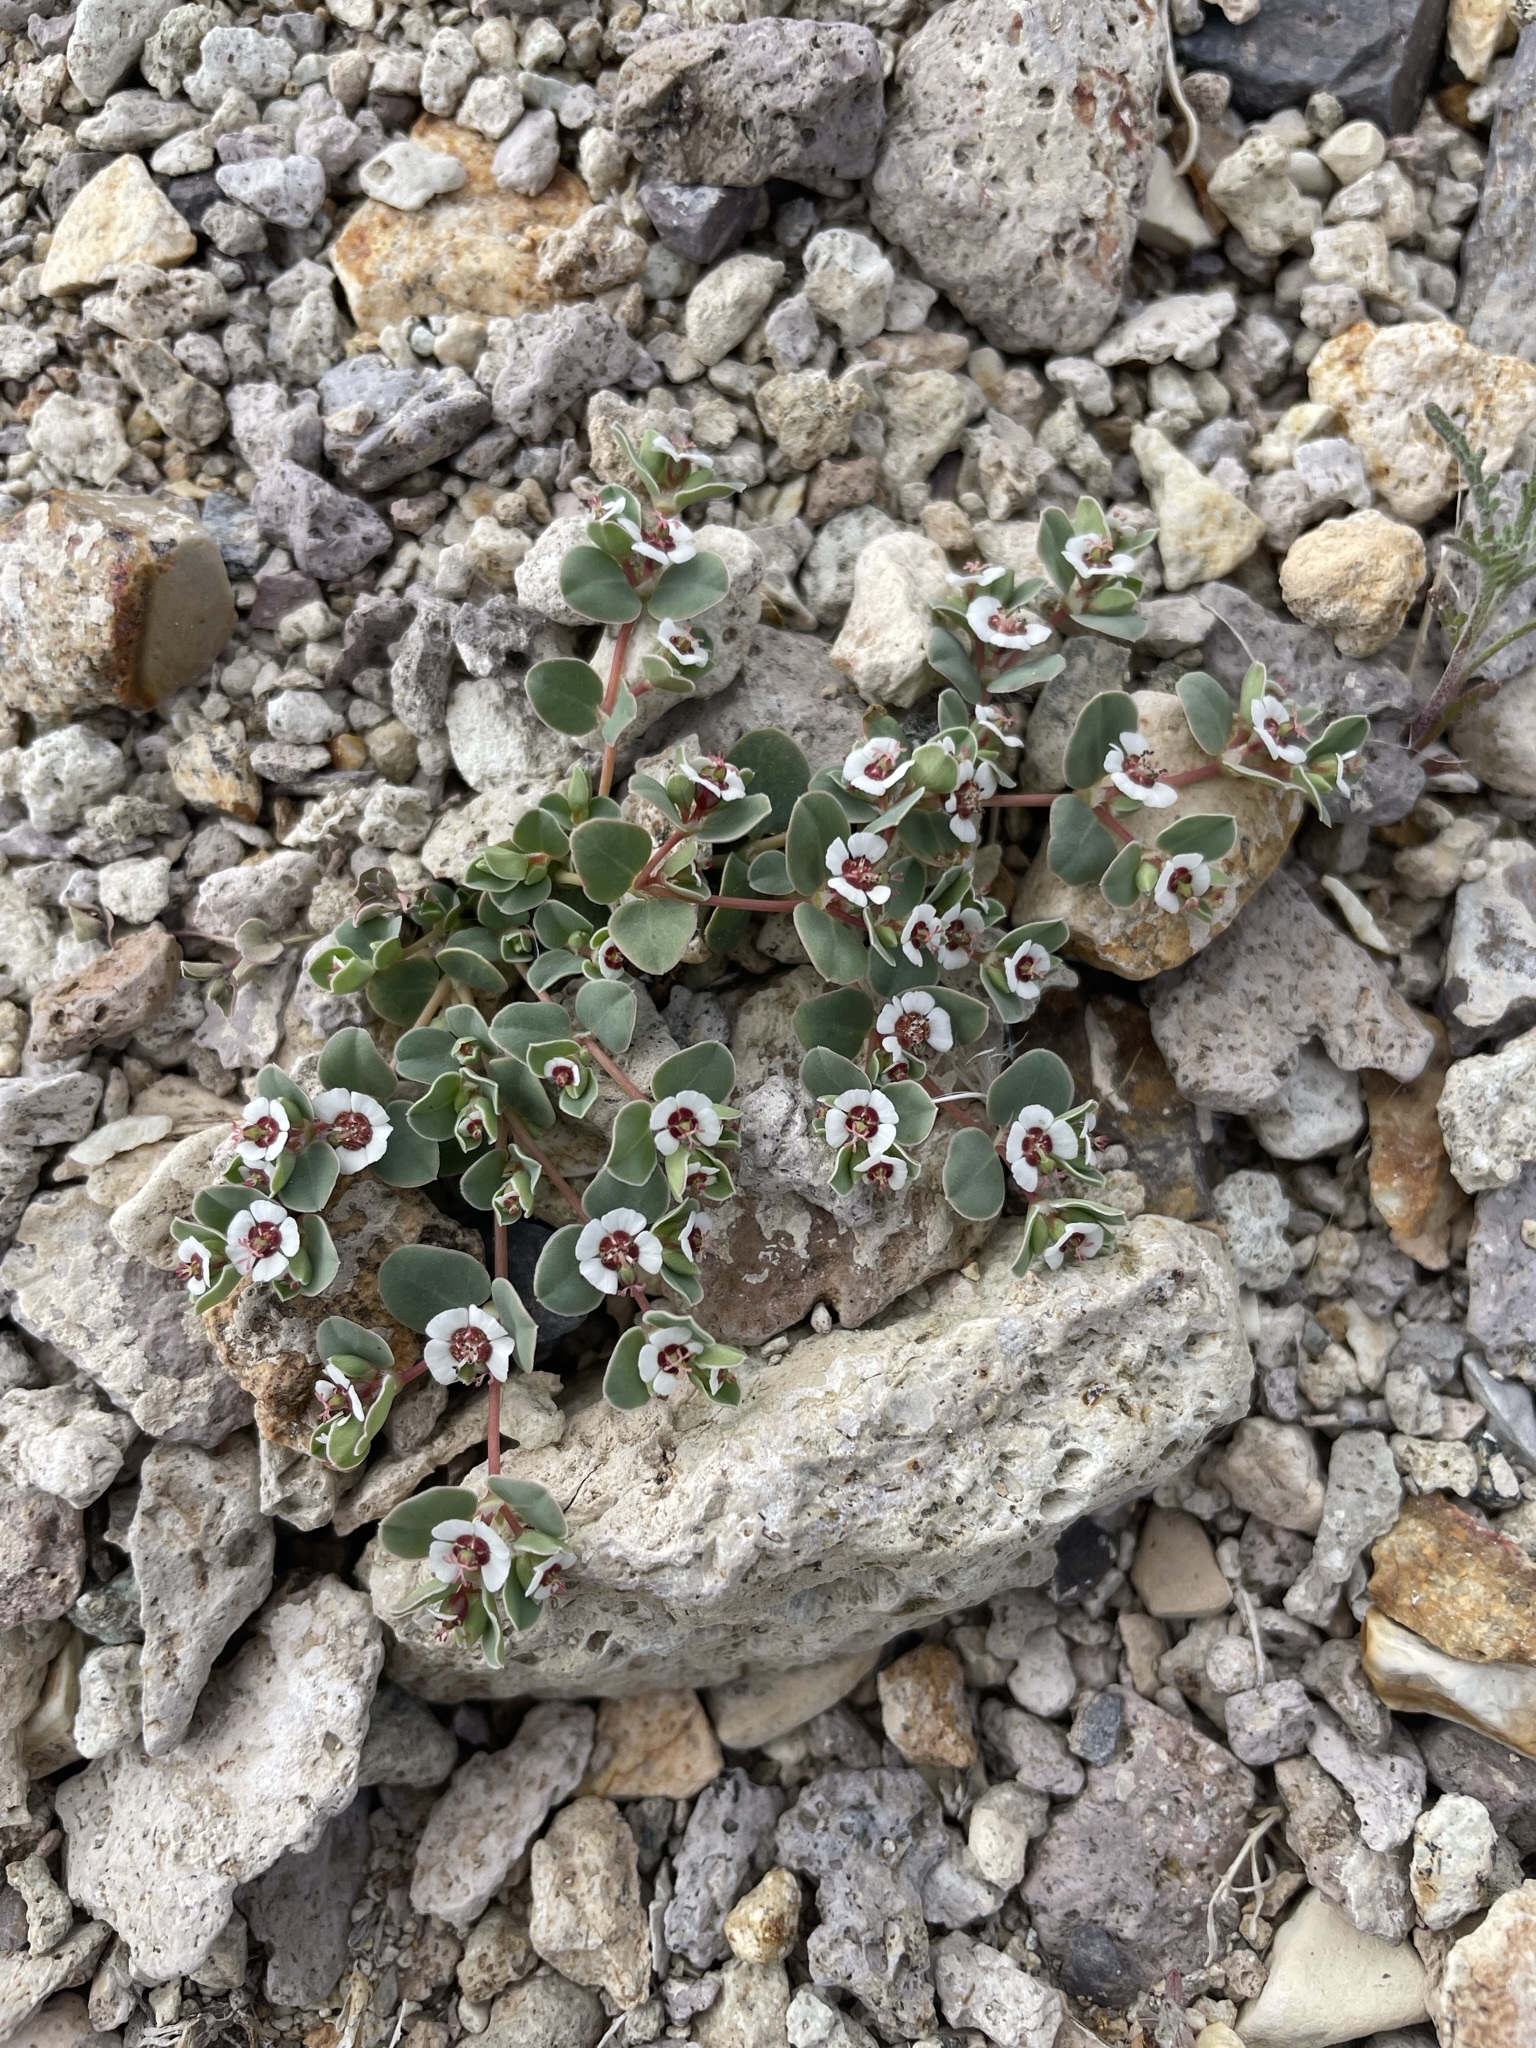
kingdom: Plantae
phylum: Tracheophyta
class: Magnoliopsida
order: Malpighiales
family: Euphorbiaceae
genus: Euphorbia
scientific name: Euphorbia albomarginata
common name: Whitemargin sandmat
